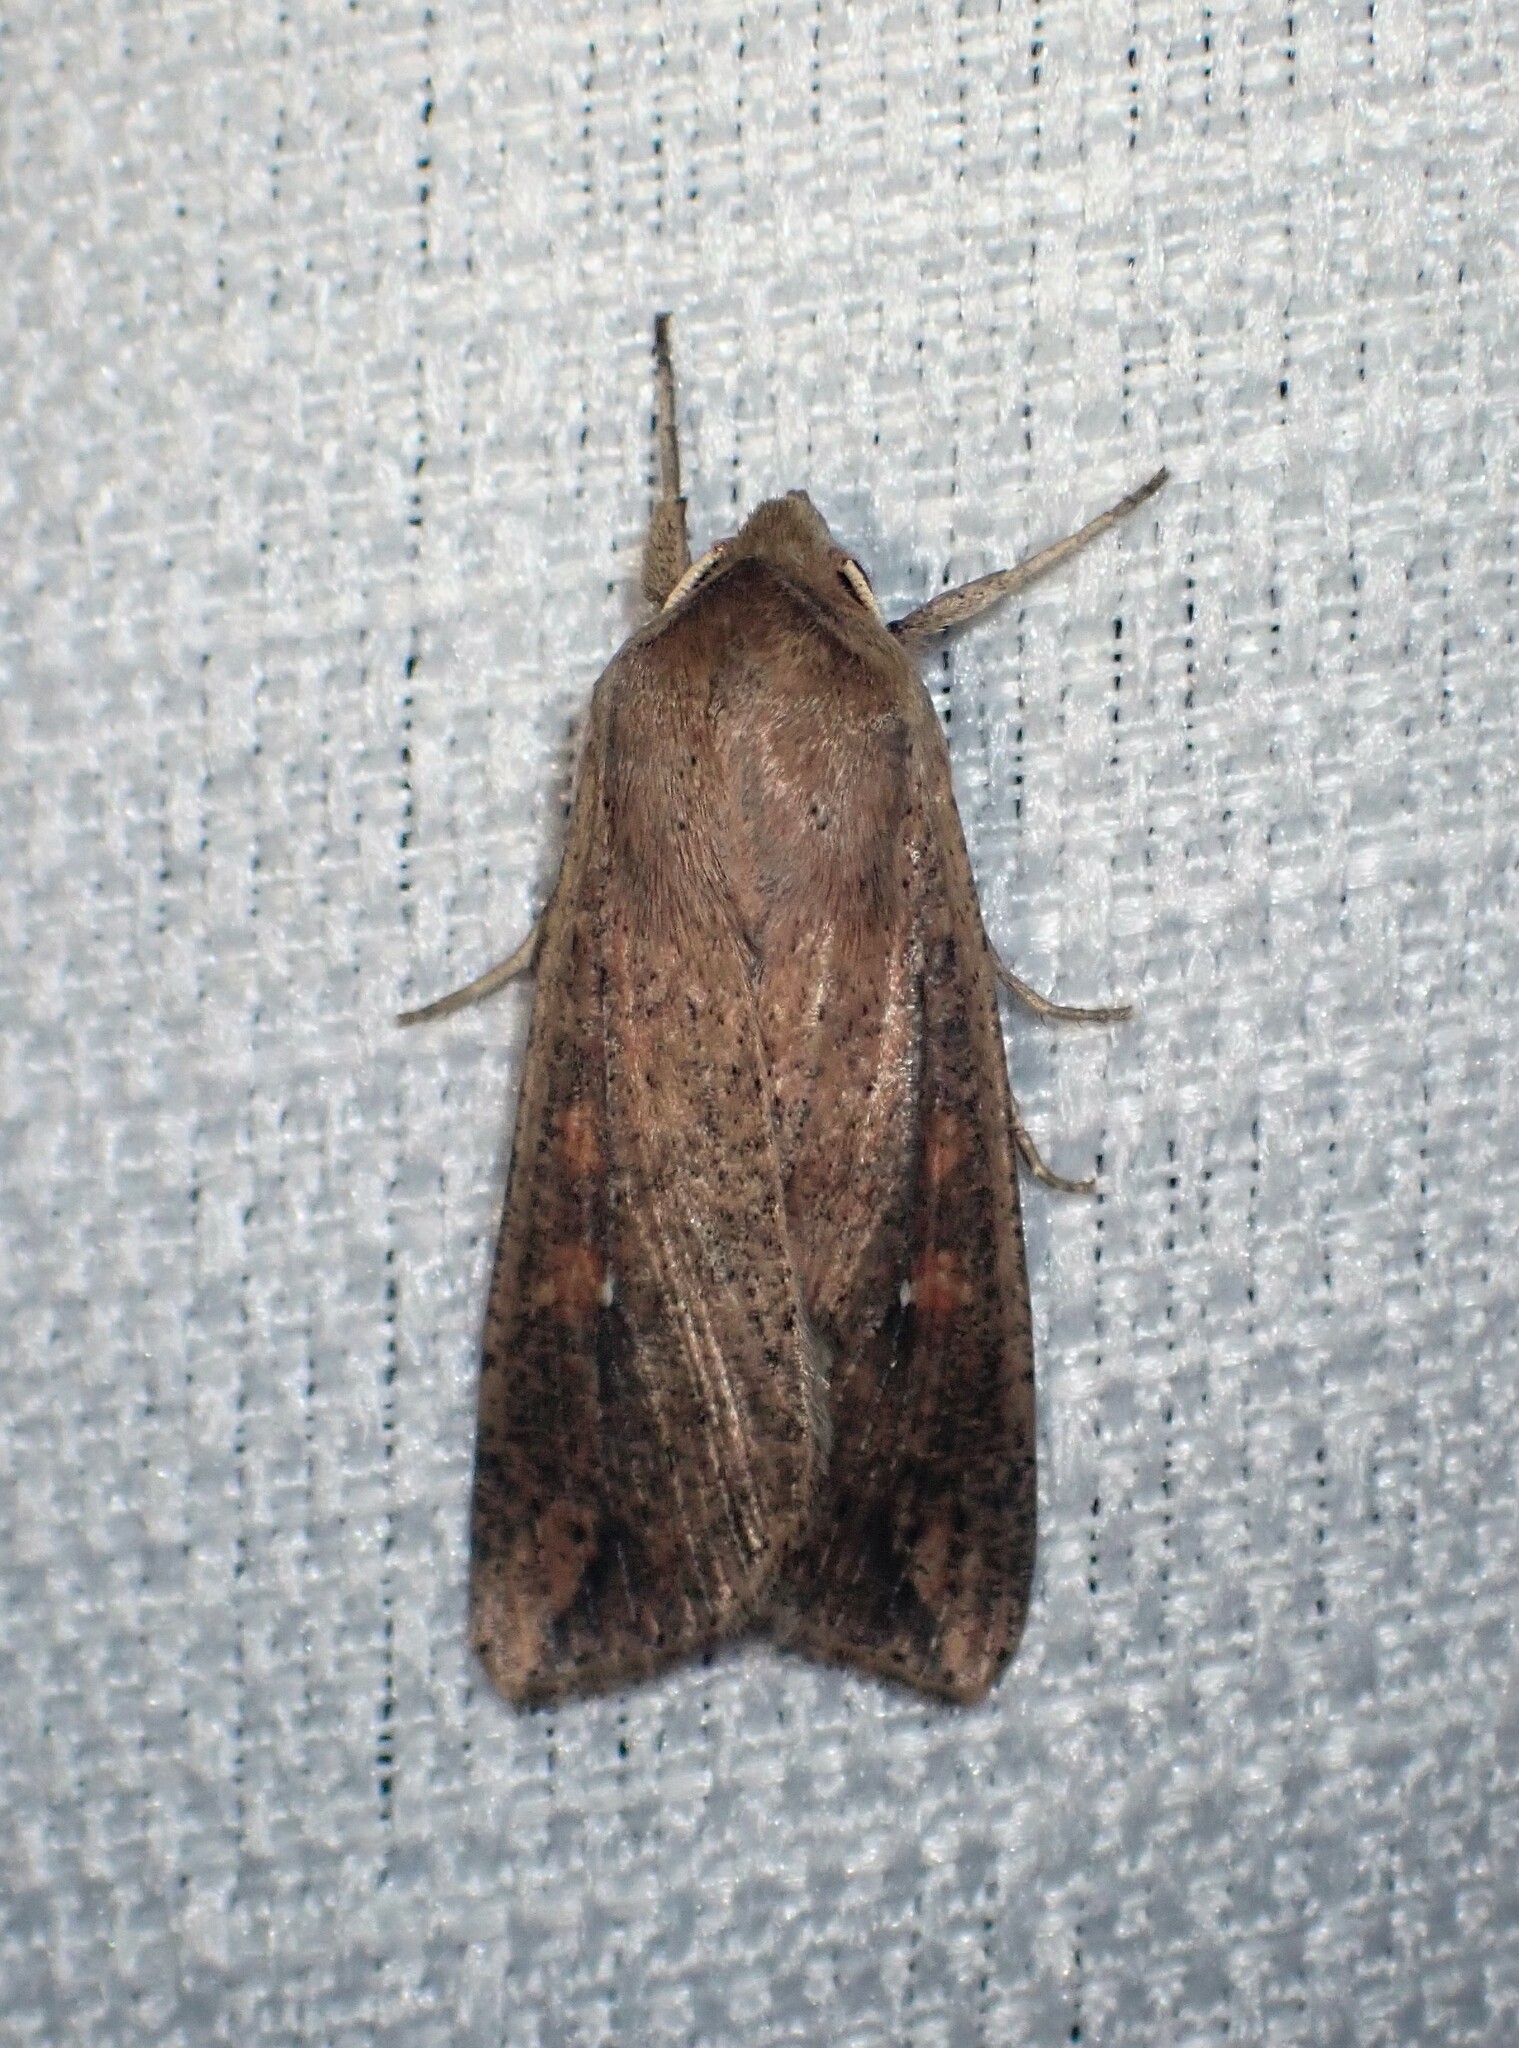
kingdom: Animalia
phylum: Arthropoda
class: Insecta
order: Lepidoptera
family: Noctuidae
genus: Mythimna
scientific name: Mythimna unipuncta
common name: White-speck
